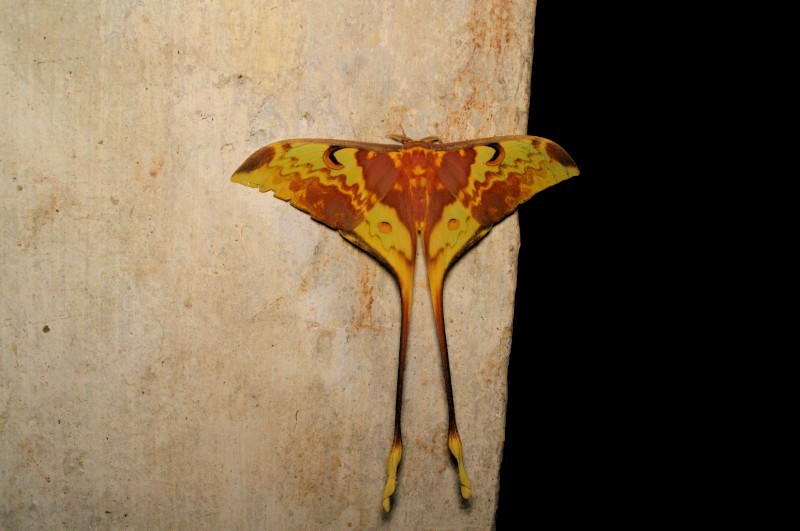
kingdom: Animalia
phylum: Arthropoda
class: Insecta
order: Lepidoptera
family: Saturniidae
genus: Actias
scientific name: Actias maenas
